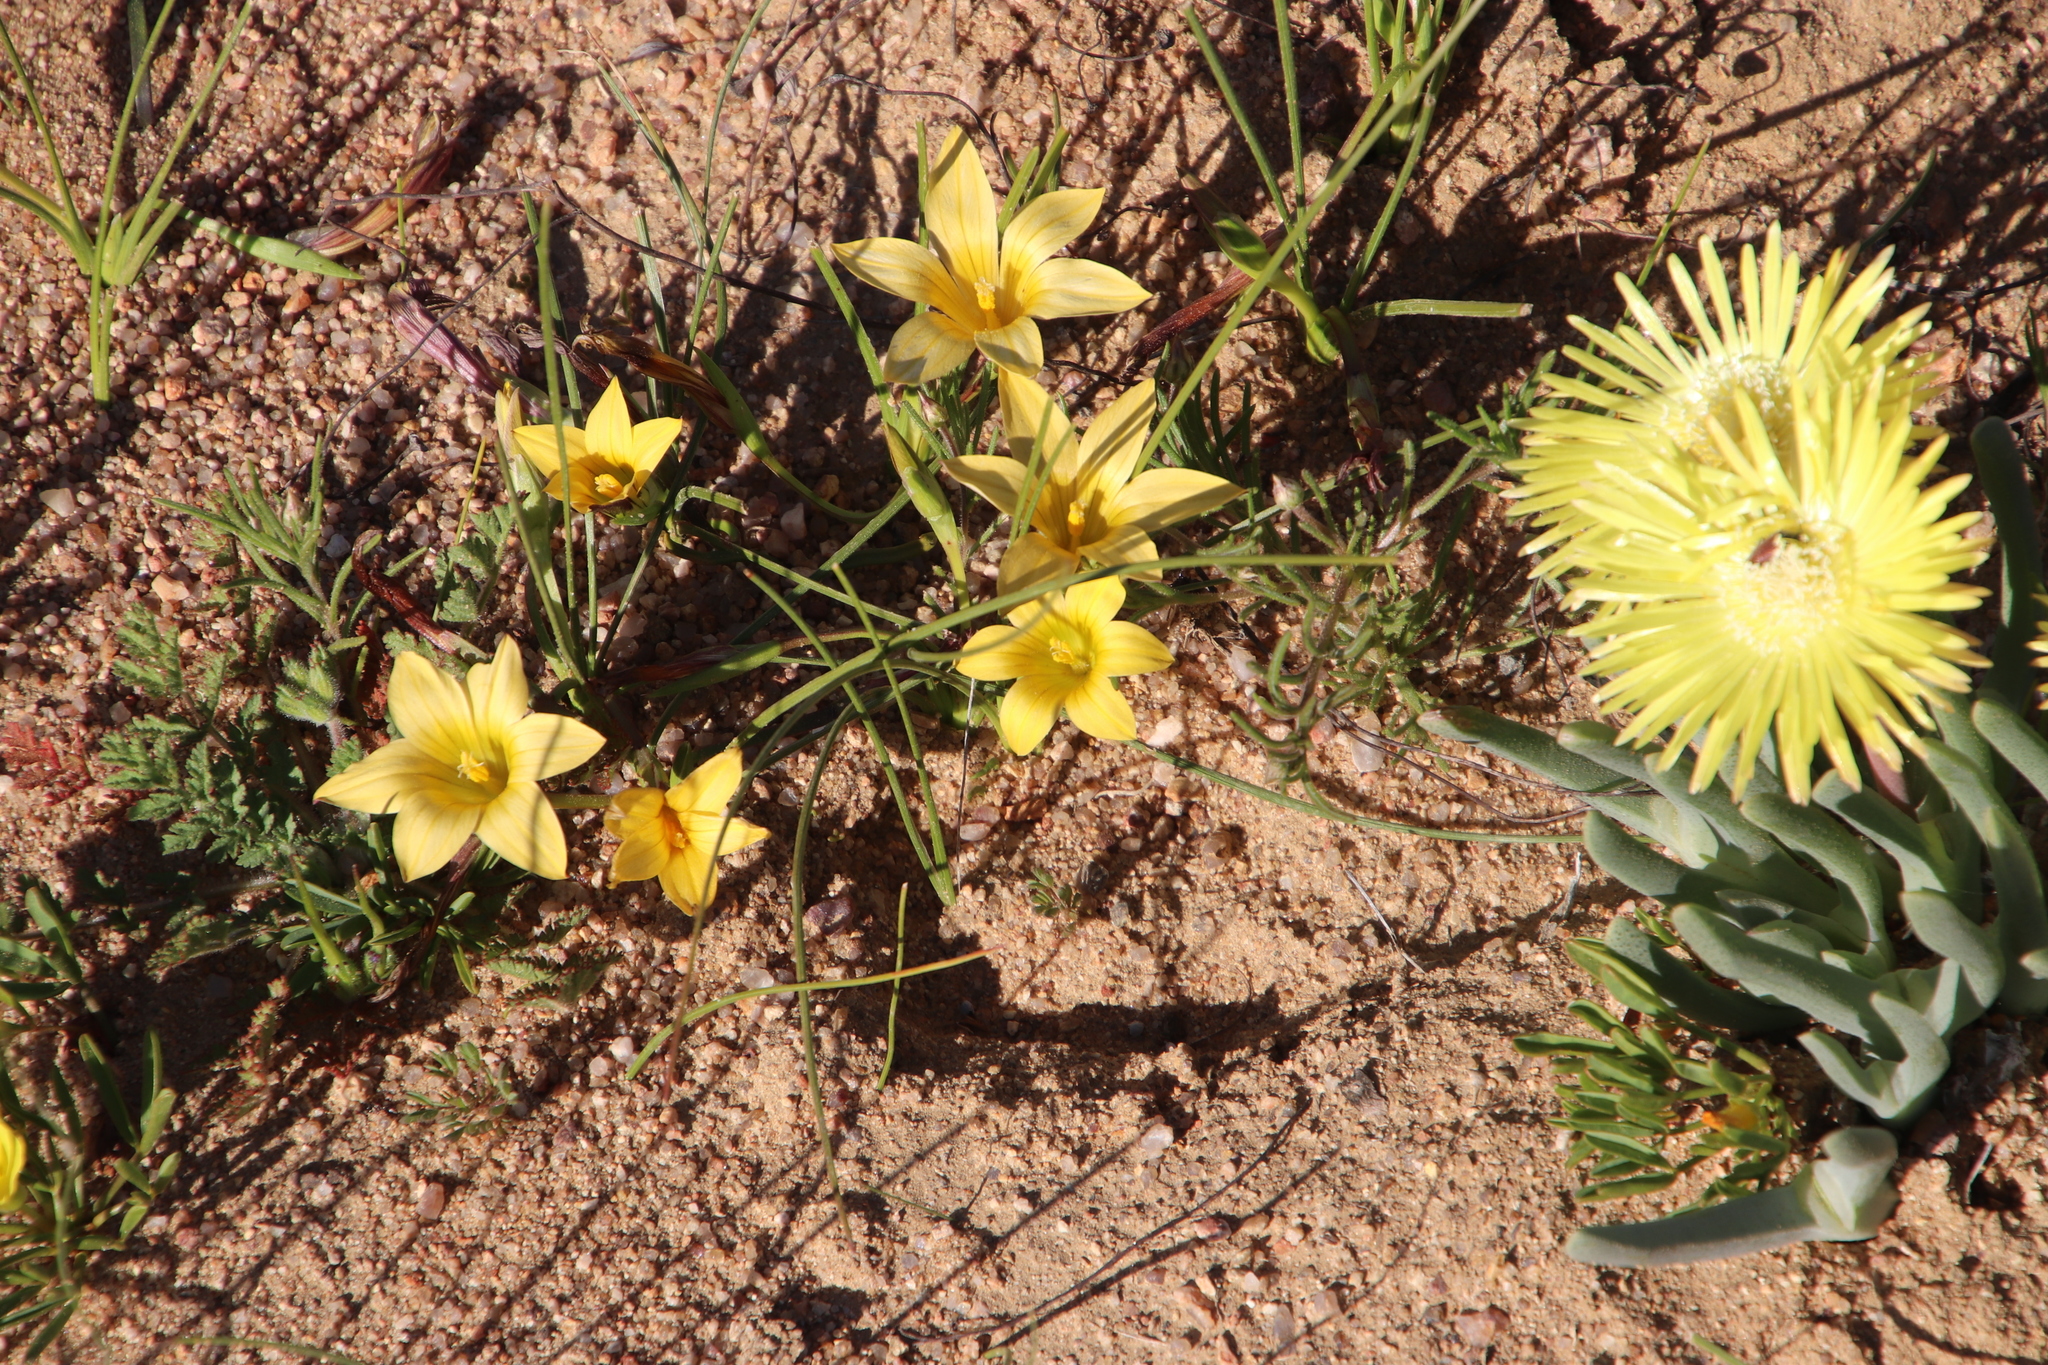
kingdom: Plantae
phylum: Tracheophyta
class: Liliopsida
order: Asparagales
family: Iridaceae
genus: Romulea
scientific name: Romulea citrina
